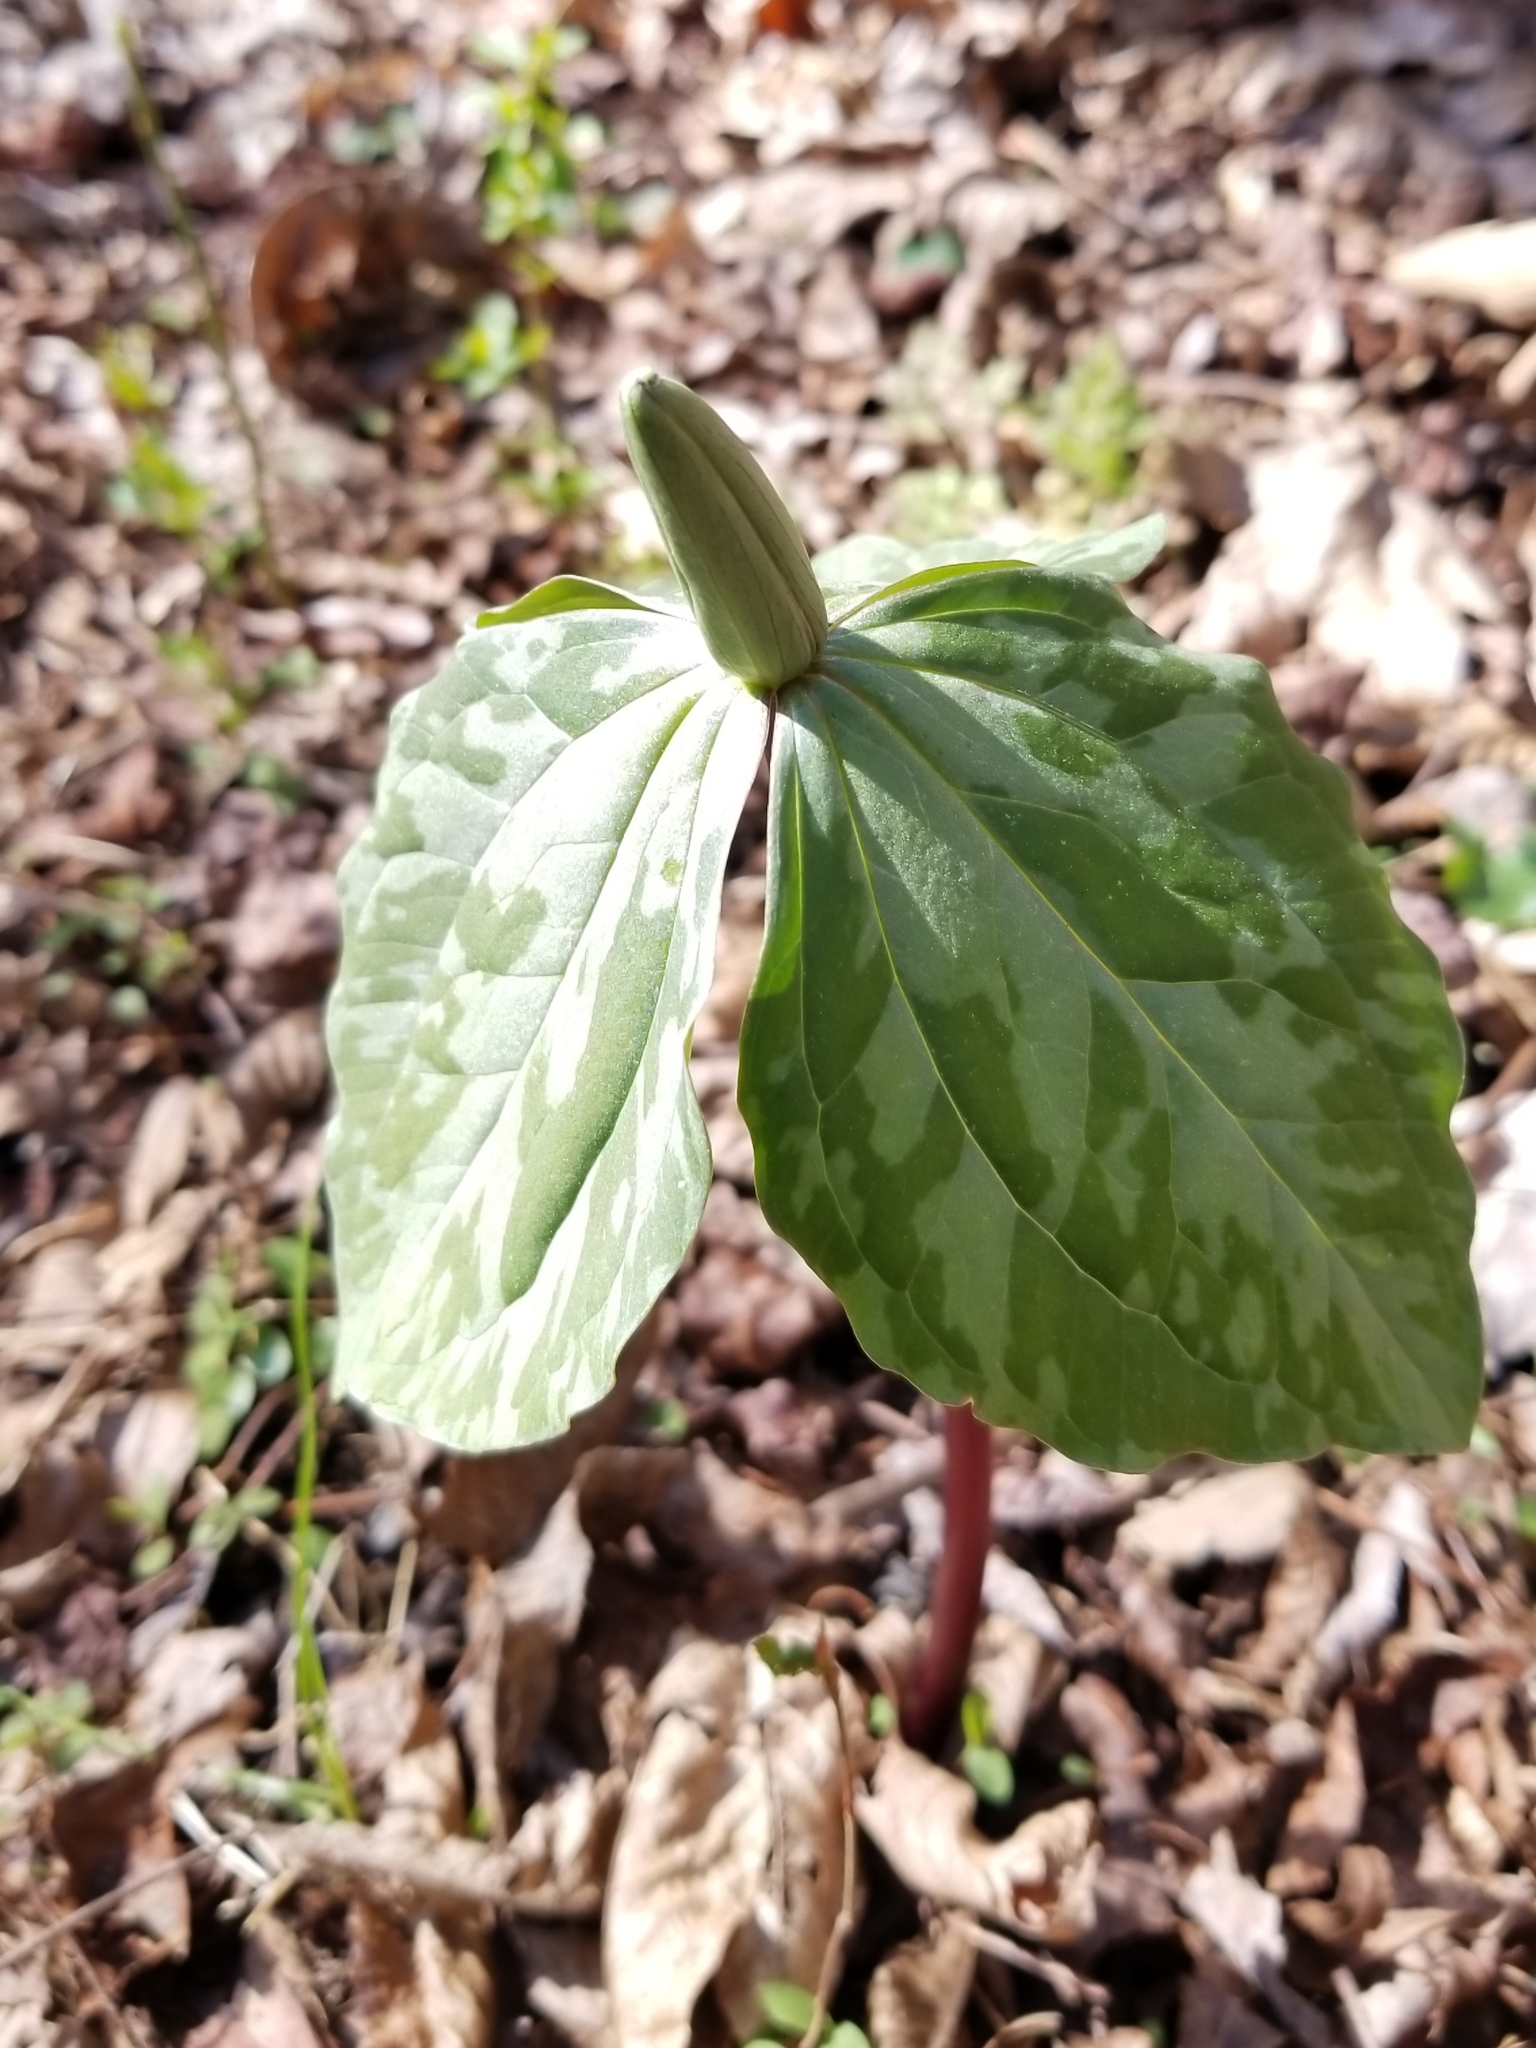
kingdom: Plantae
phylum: Tracheophyta
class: Liliopsida
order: Liliales
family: Melanthiaceae
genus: Trillium
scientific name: Trillium cuneatum
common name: Cuneate trillium
